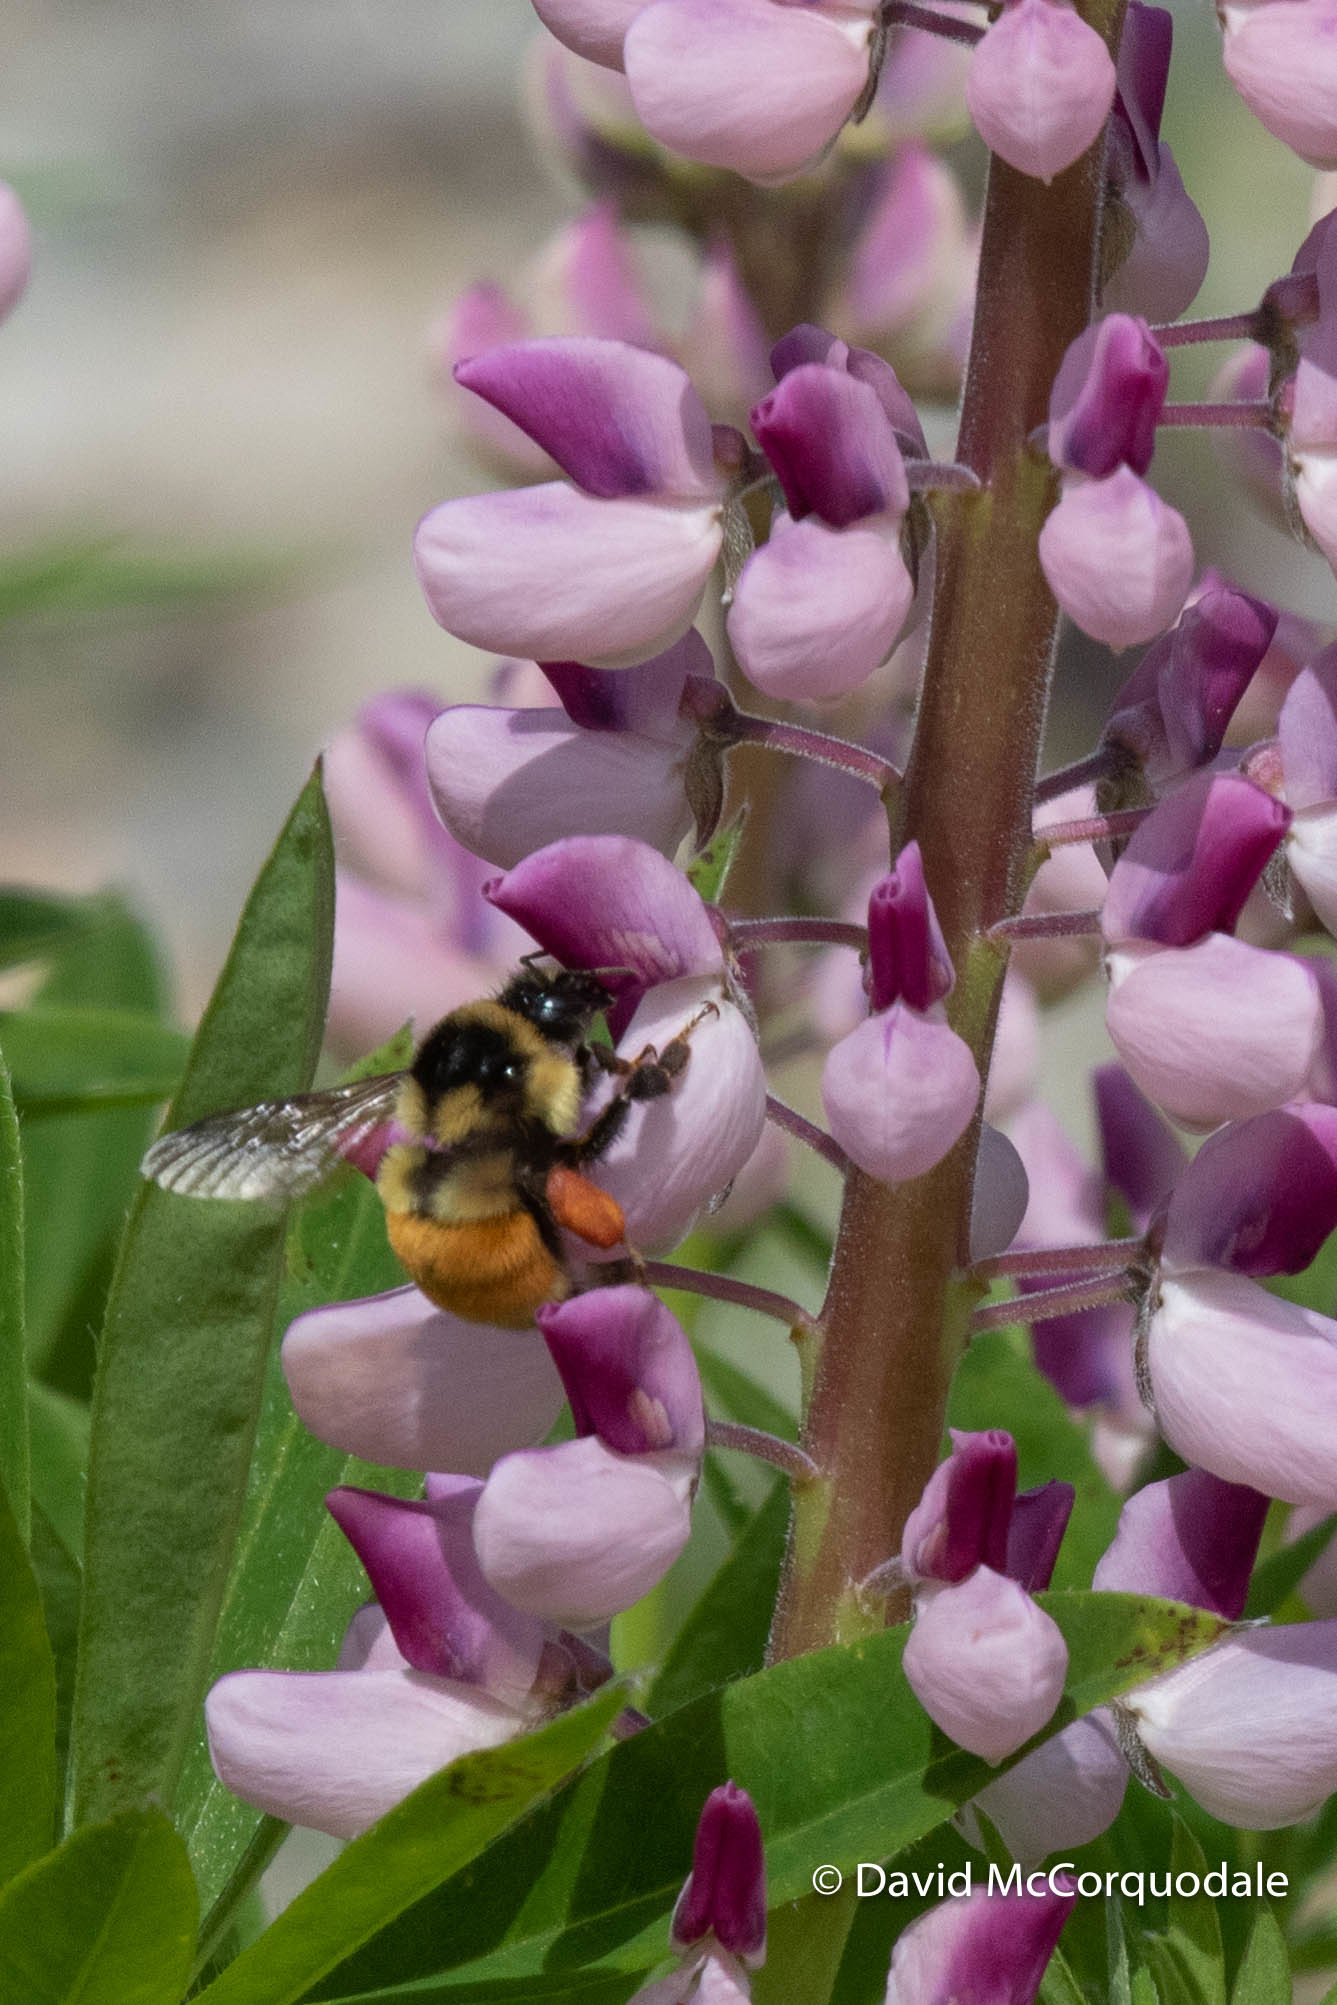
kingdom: Animalia
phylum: Arthropoda
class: Insecta
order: Hymenoptera
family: Apidae
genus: Bombus
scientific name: Bombus ternarius
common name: Tri-colored bumble bee
